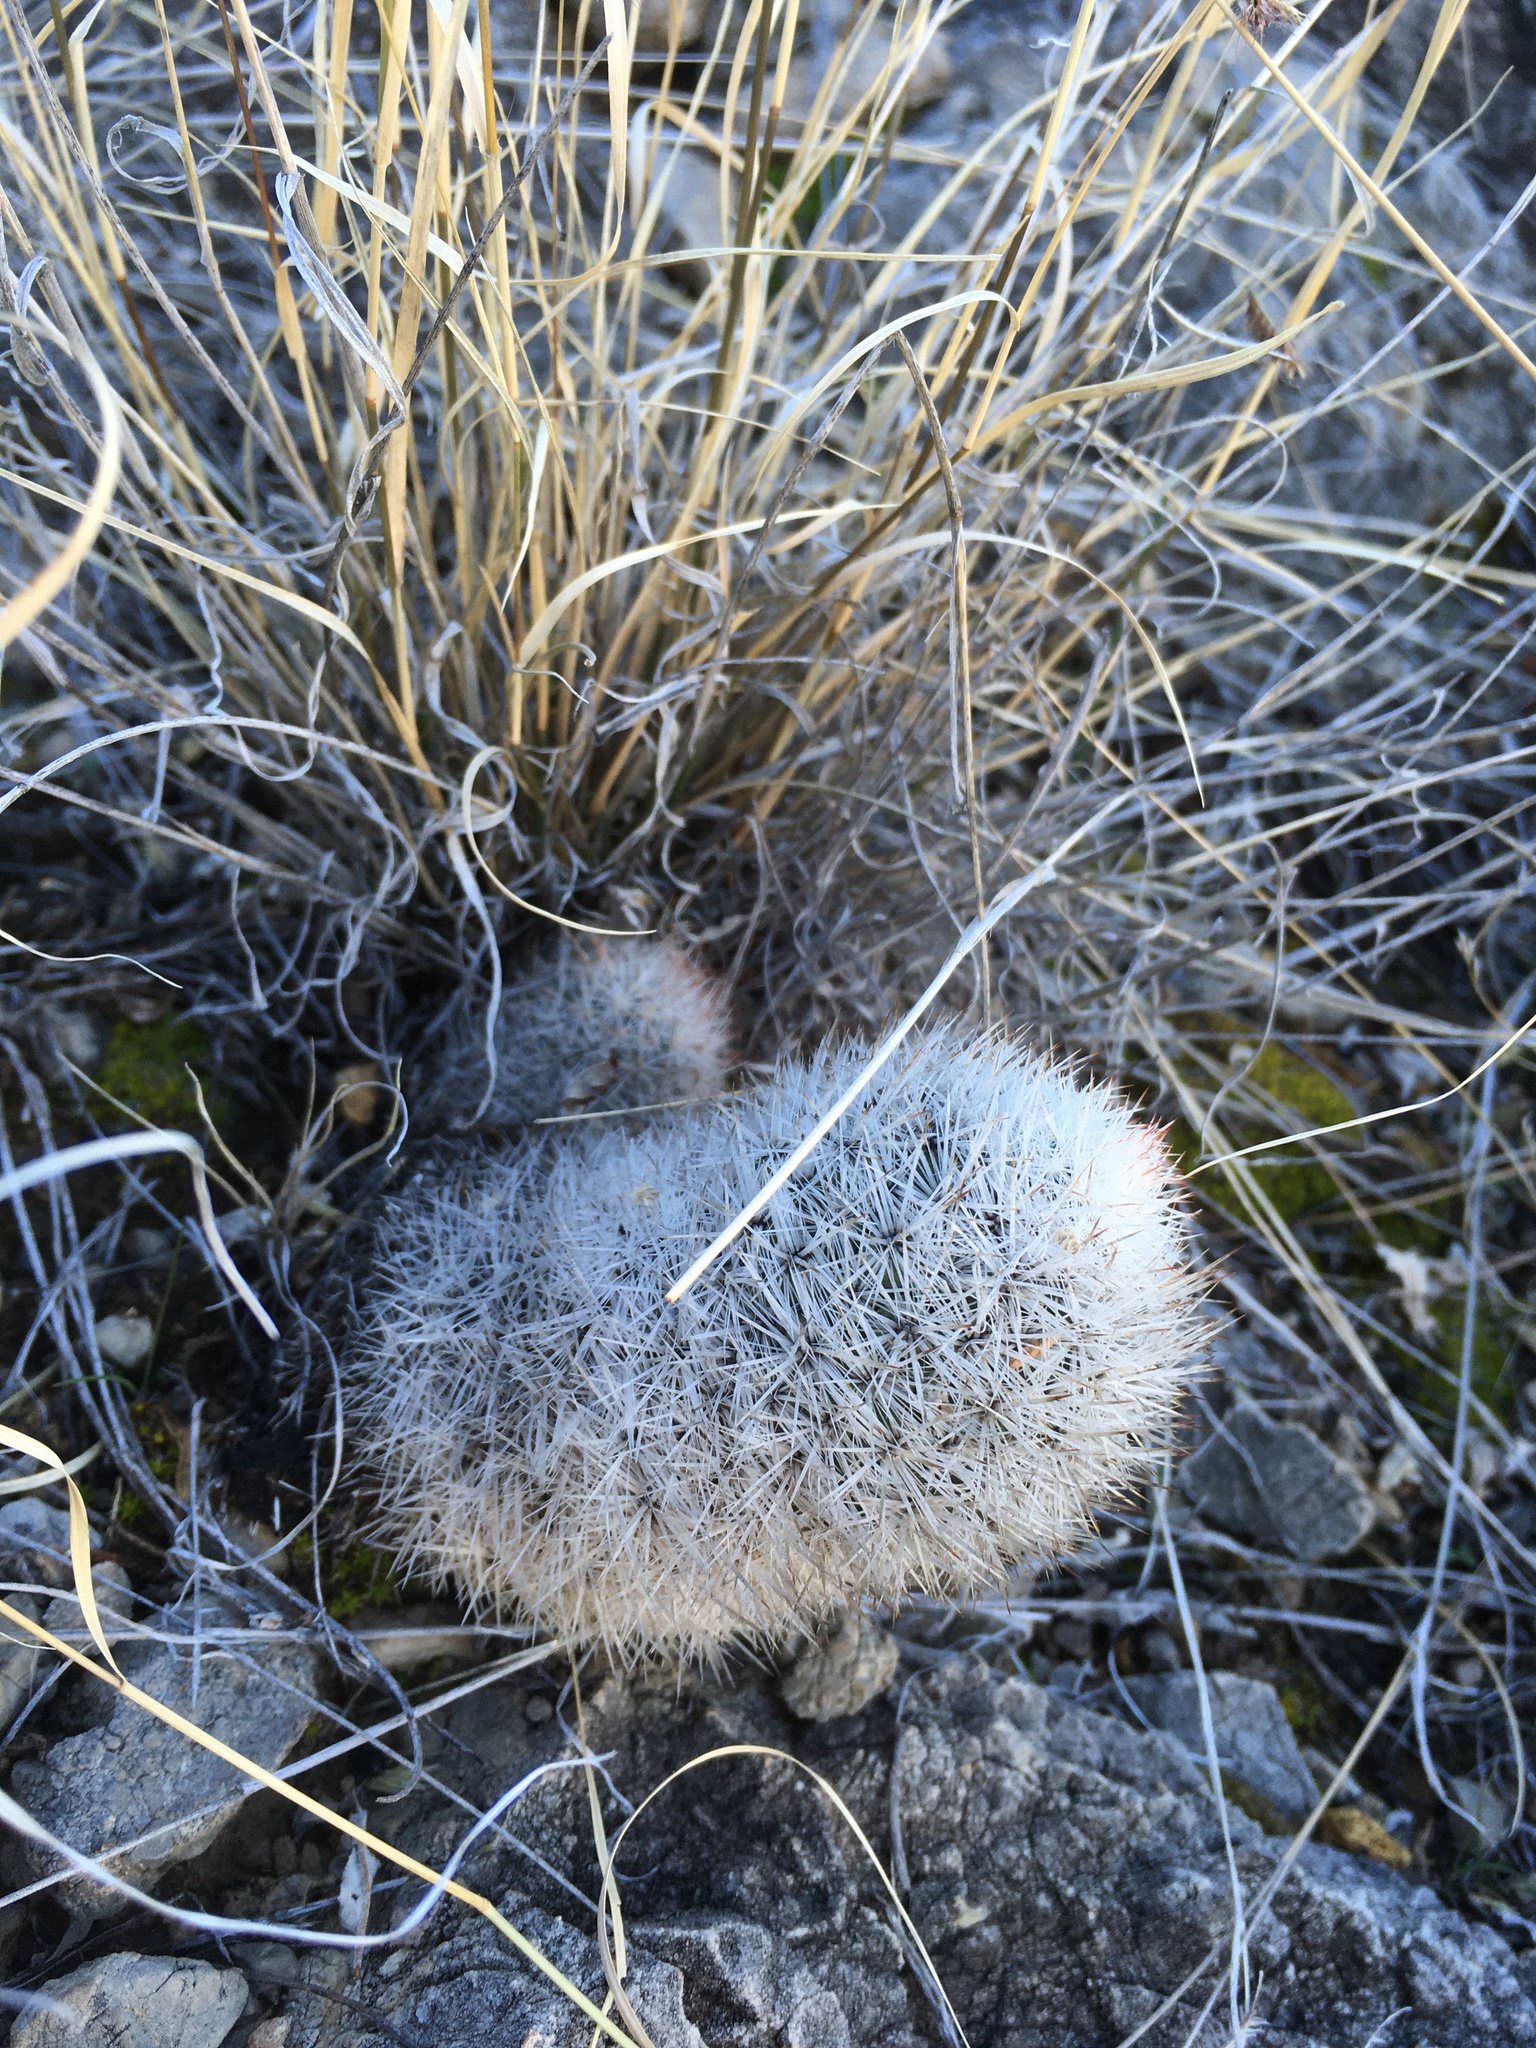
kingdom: Plantae
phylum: Tracheophyta
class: Magnoliopsida
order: Caryophyllales
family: Cactaceae
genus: Pelecyphora
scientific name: Pelecyphora sneedii
